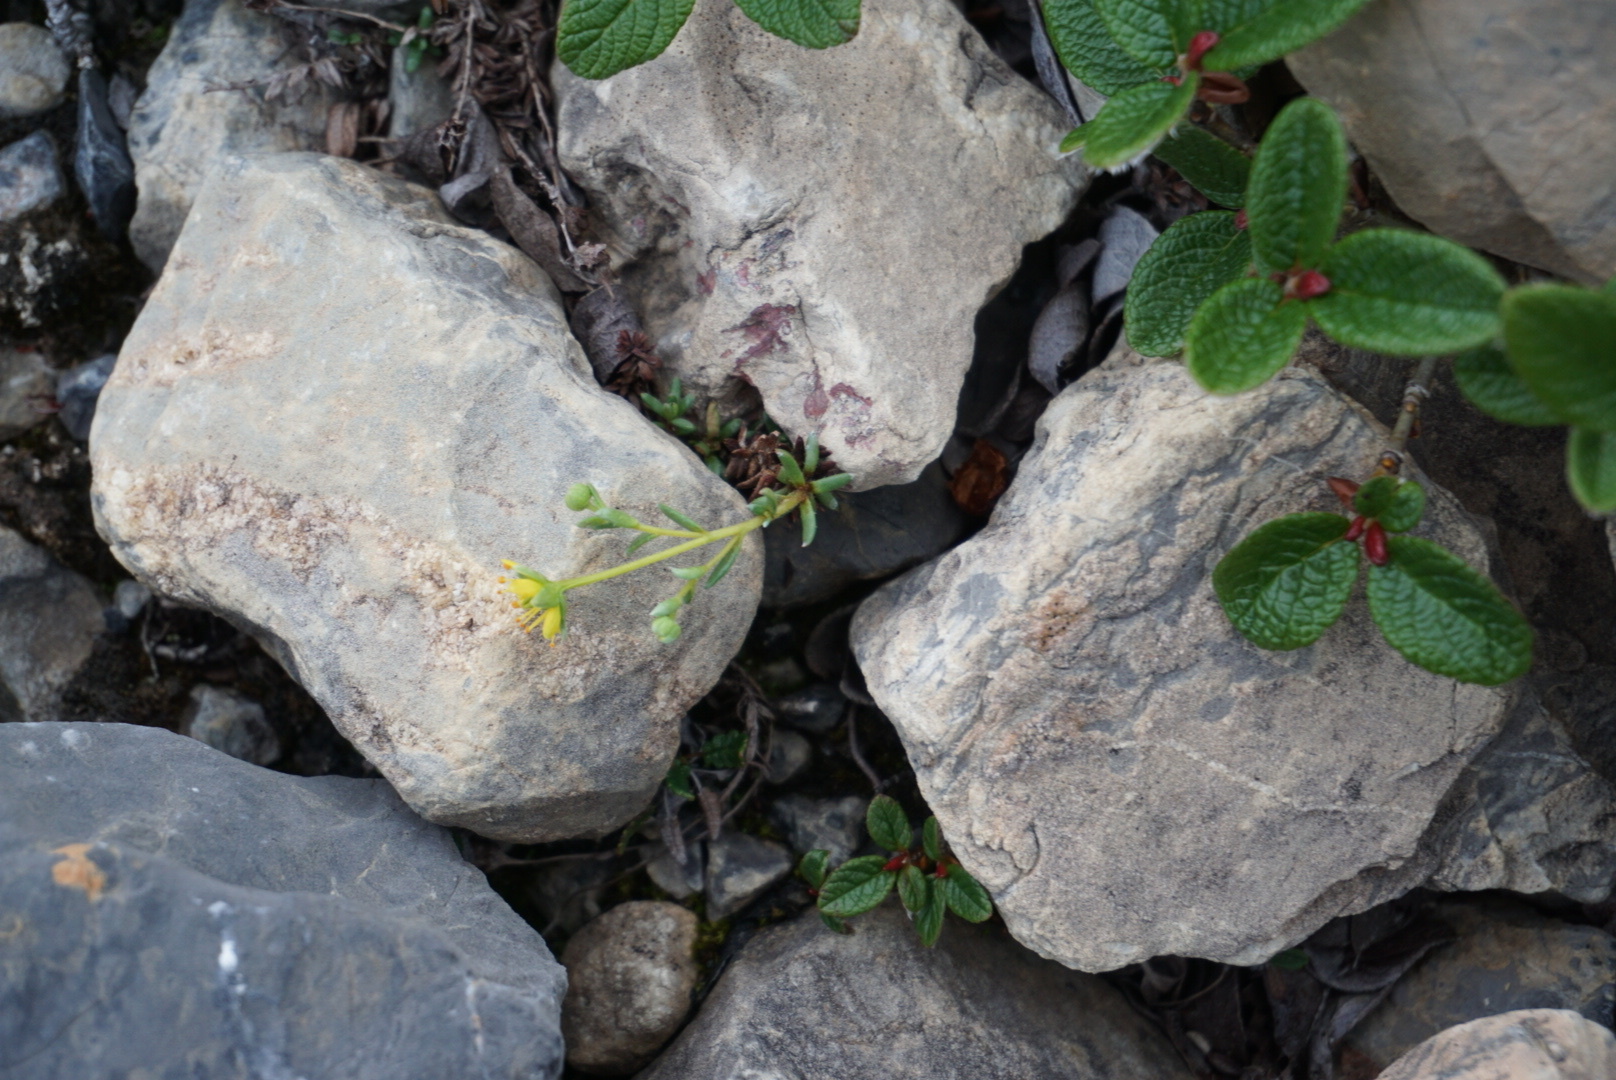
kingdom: Plantae
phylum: Tracheophyta
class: Magnoliopsida
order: Saxifragales
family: Saxifragaceae
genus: Saxifraga
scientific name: Saxifraga aizoides
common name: Yellow mountain saxifrage
